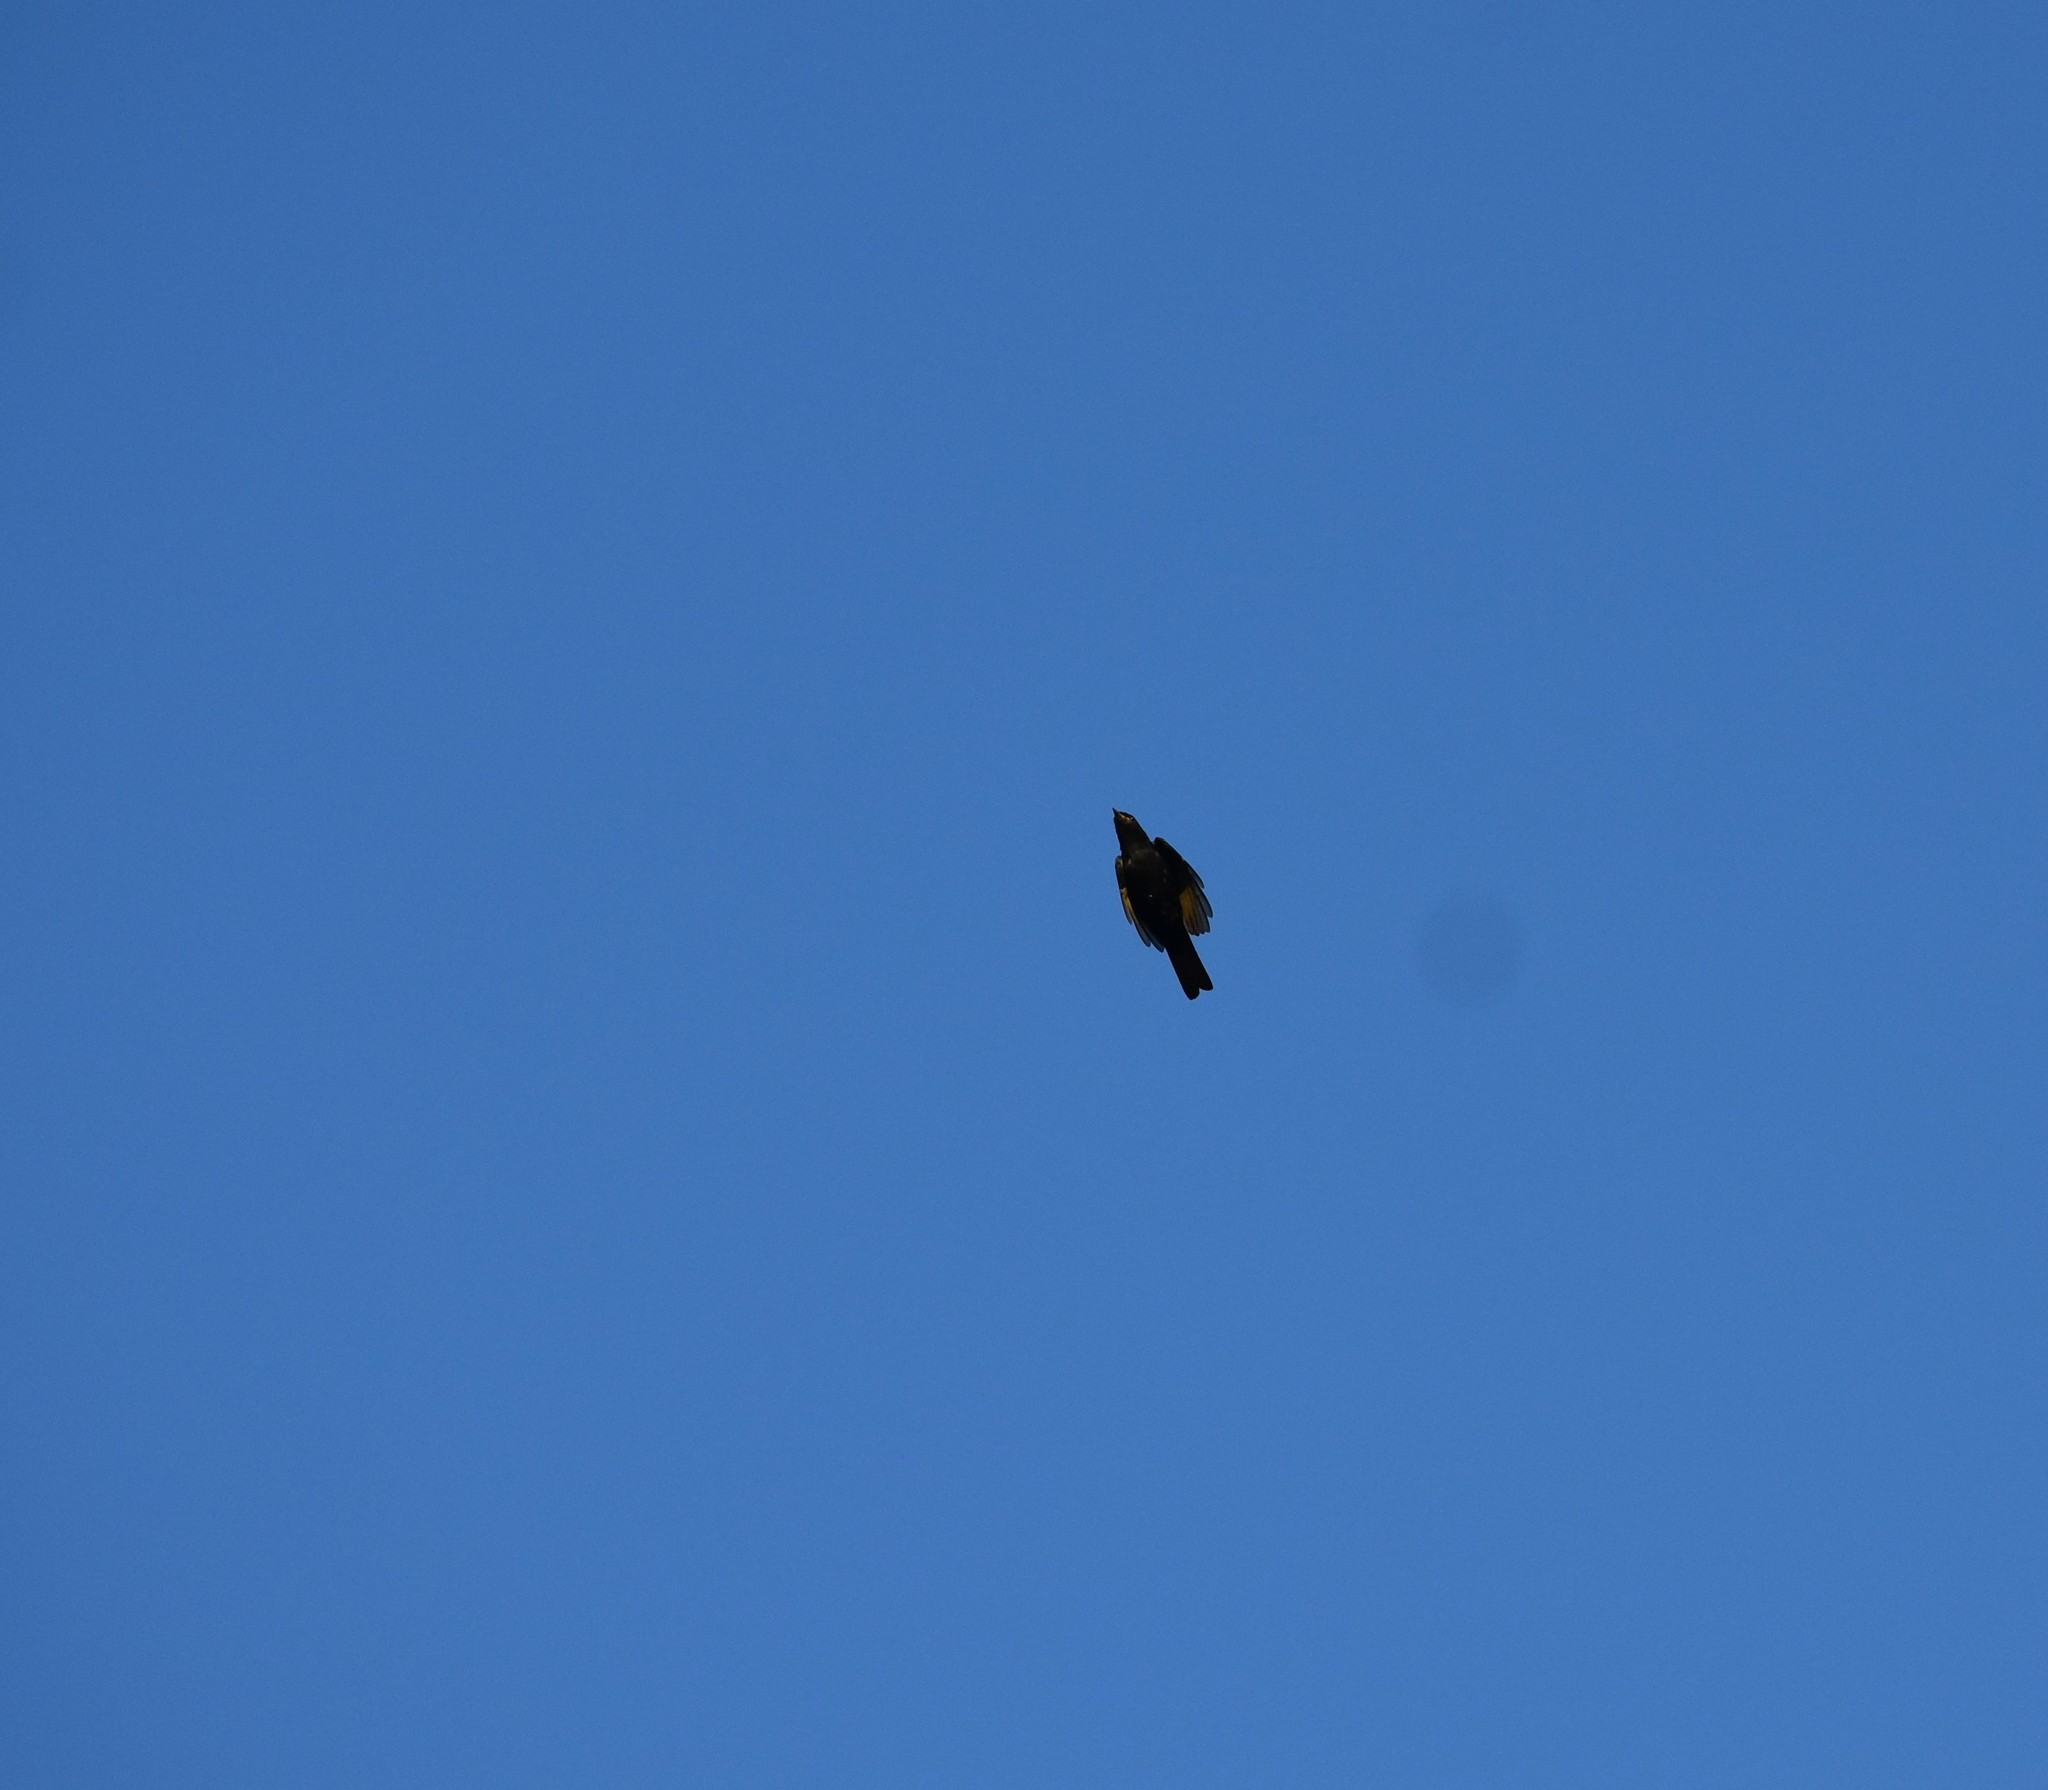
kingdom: Animalia
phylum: Chordata
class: Aves
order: Passeriformes
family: Campephagidae
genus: Campephaga
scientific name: Campephaga flava
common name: Black cuckooshrike
